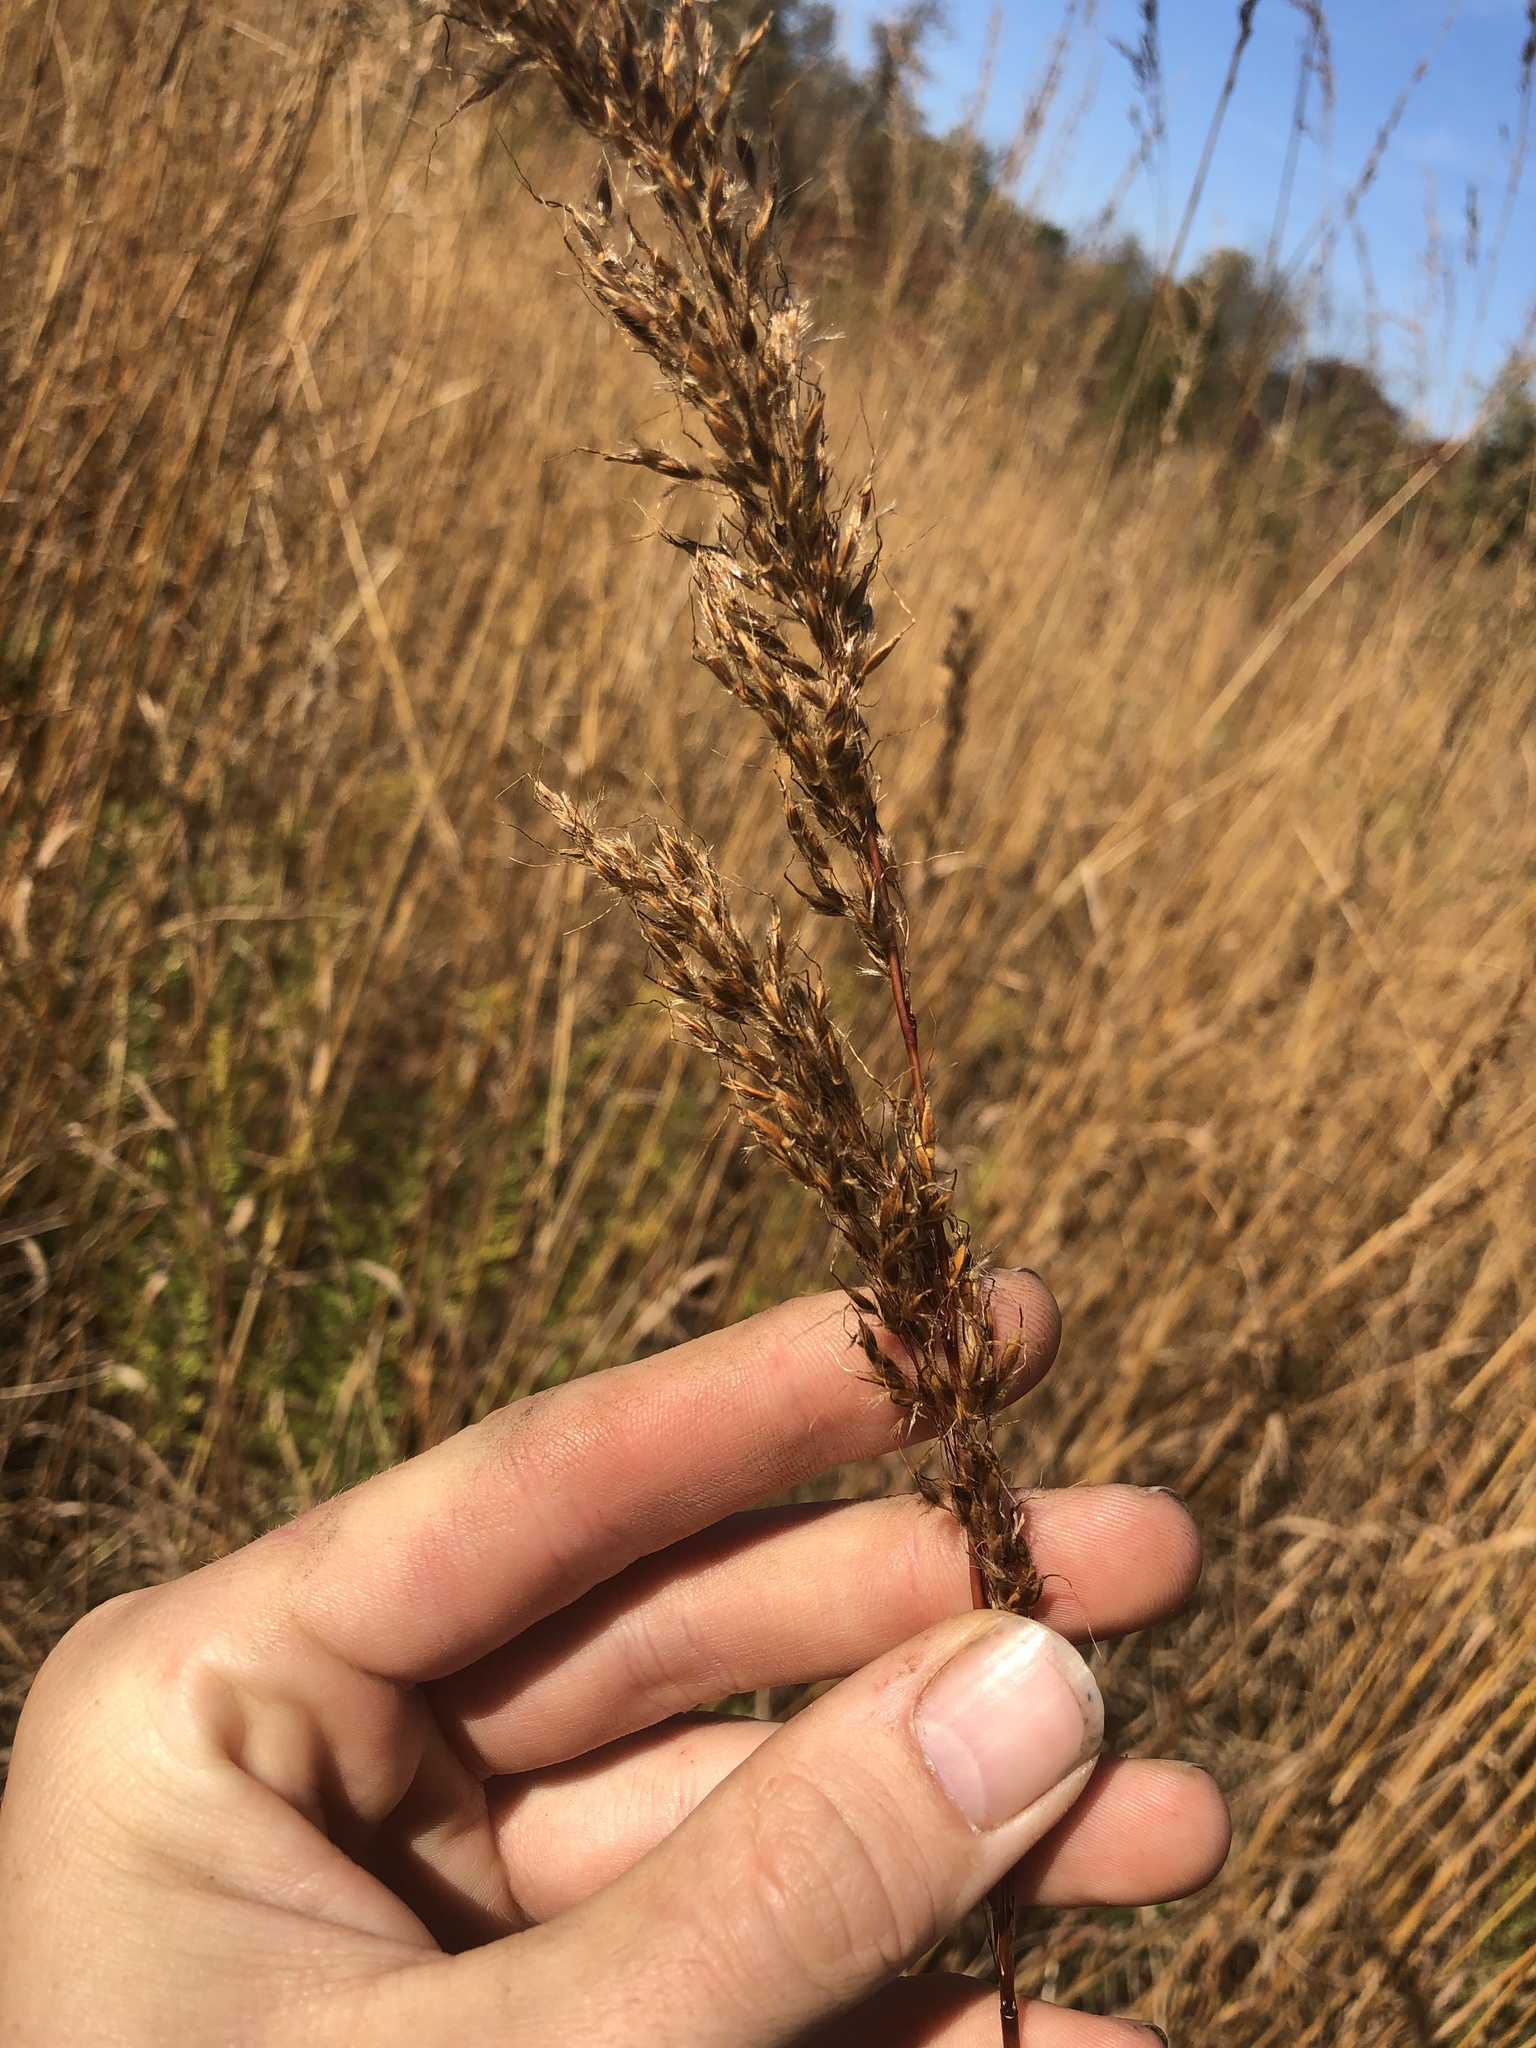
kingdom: Plantae
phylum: Tracheophyta
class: Liliopsida
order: Poales
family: Poaceae
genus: Sorghastrum
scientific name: Sorghastrum nutans
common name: Indian grass
